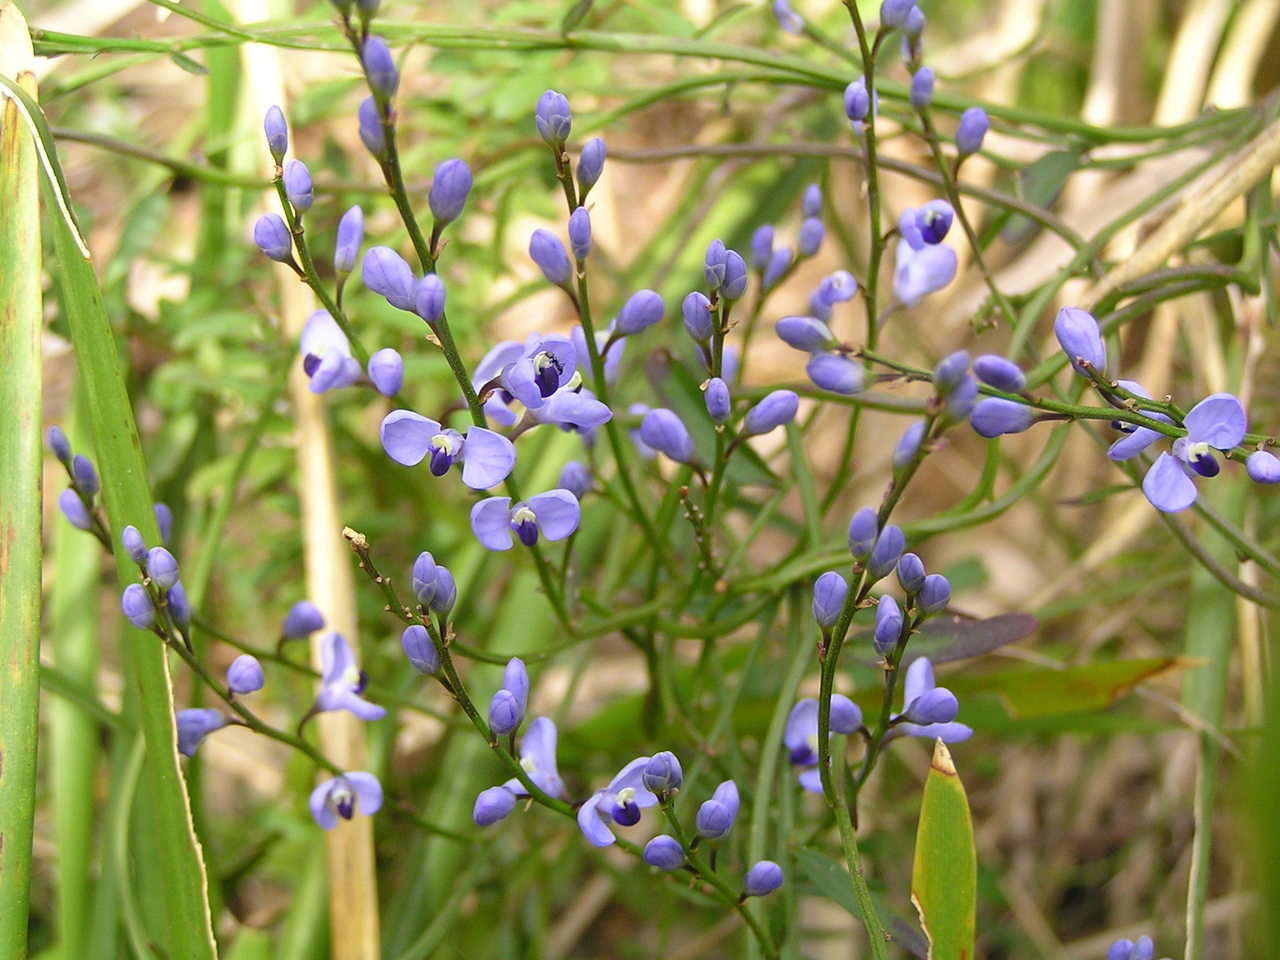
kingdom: Plantae
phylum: Tracheophyta
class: Magnoliopsida
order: Fabales
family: Polygalaceae
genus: Comesperma
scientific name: Comesperma volubile
